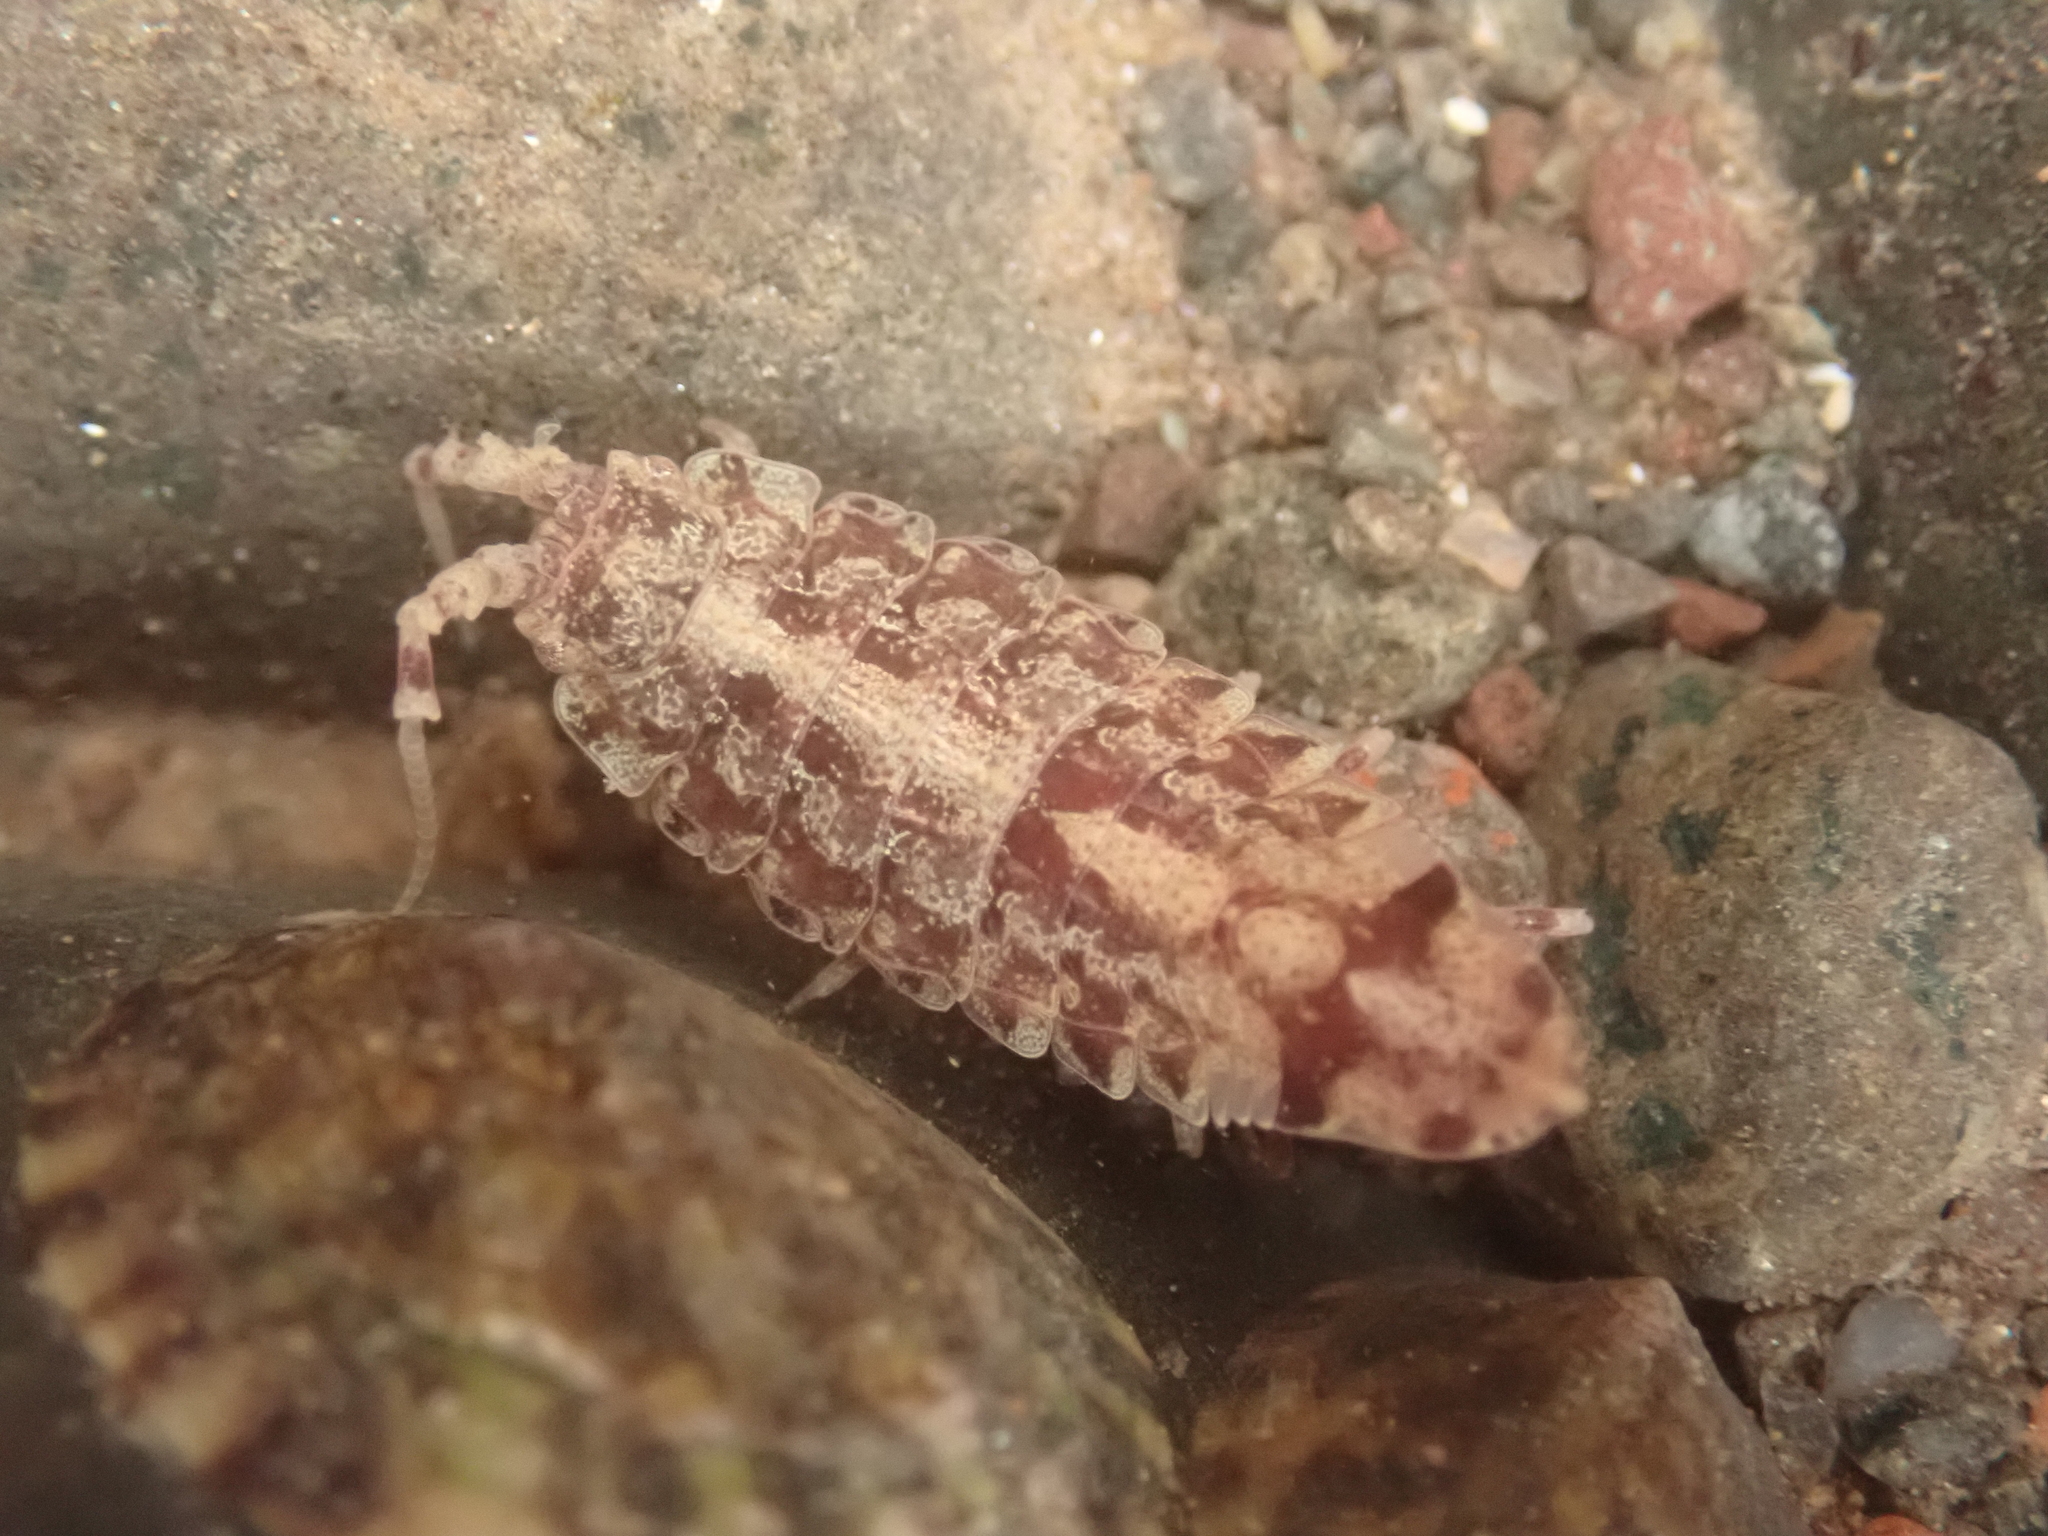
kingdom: Animalia
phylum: Arthropoda
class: Malacostraca
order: Isopoda
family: Idoteidae
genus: Idotea
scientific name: Idotea phosphorea
